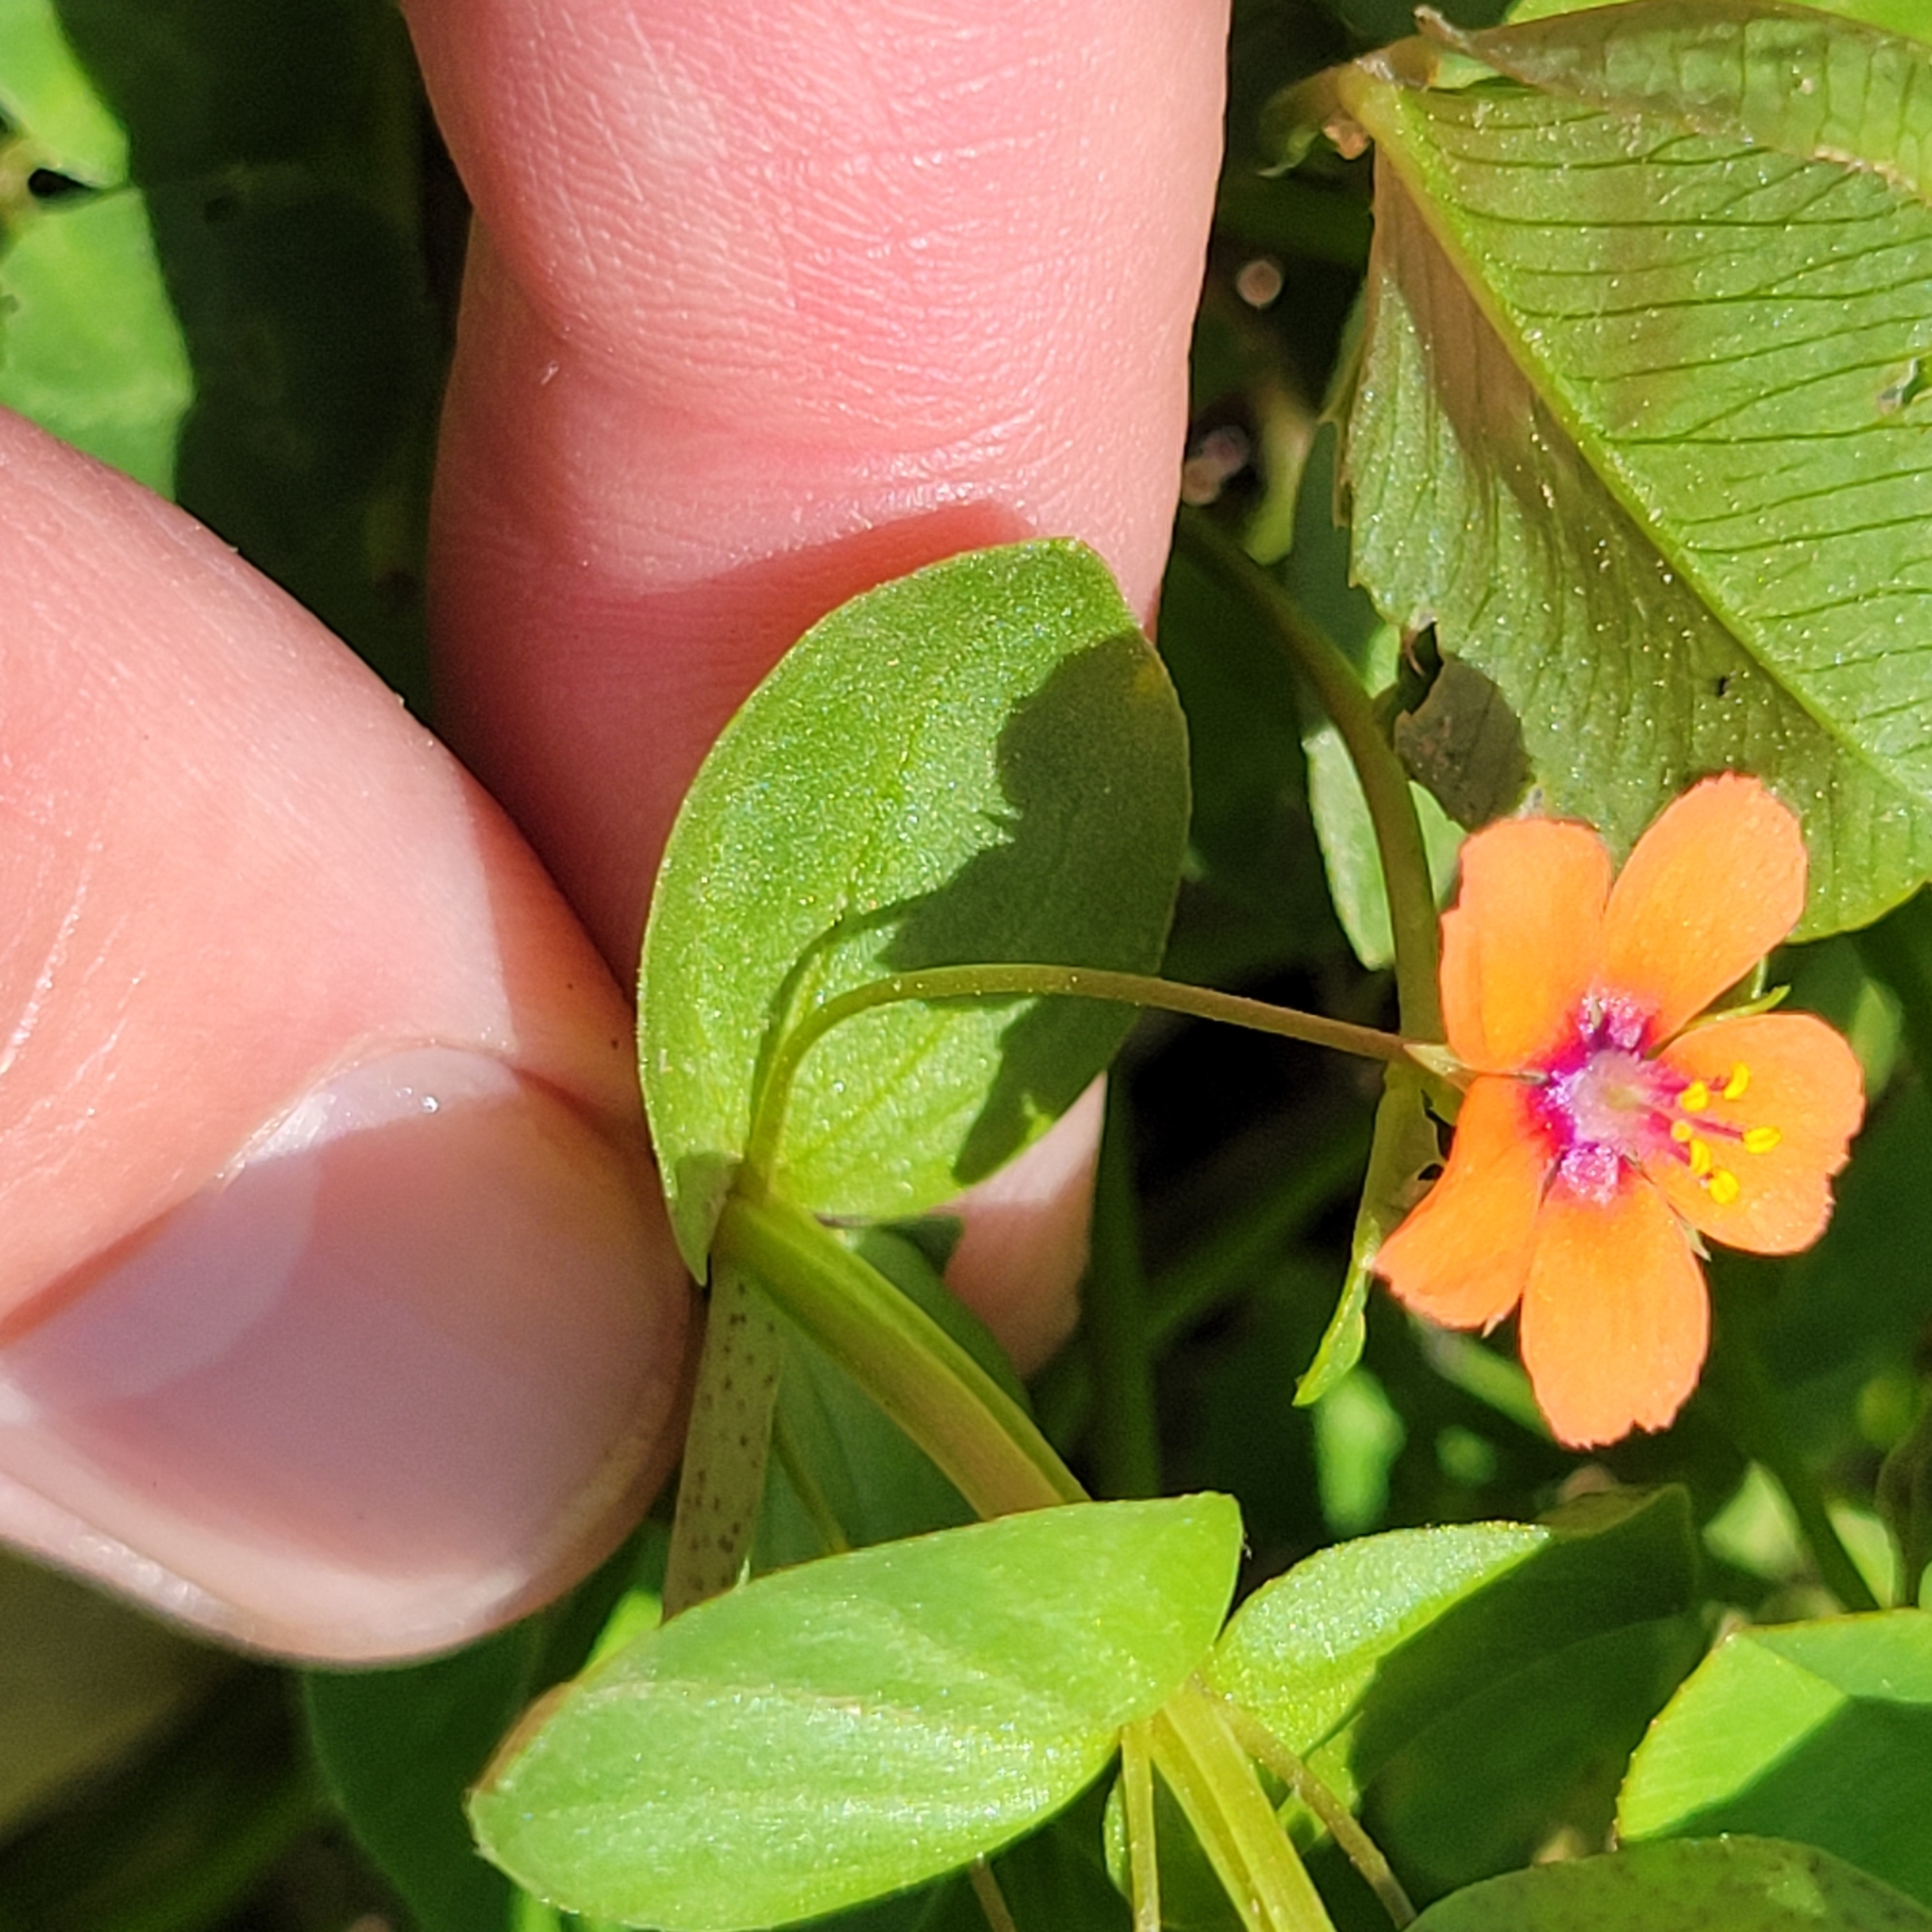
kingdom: Plantae
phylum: Tracheophyta
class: Magnoliopsida
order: Ericales
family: Primulaceae
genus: Lysimachia
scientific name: Lysimachia arvensis
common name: Scarlet pimpernel
